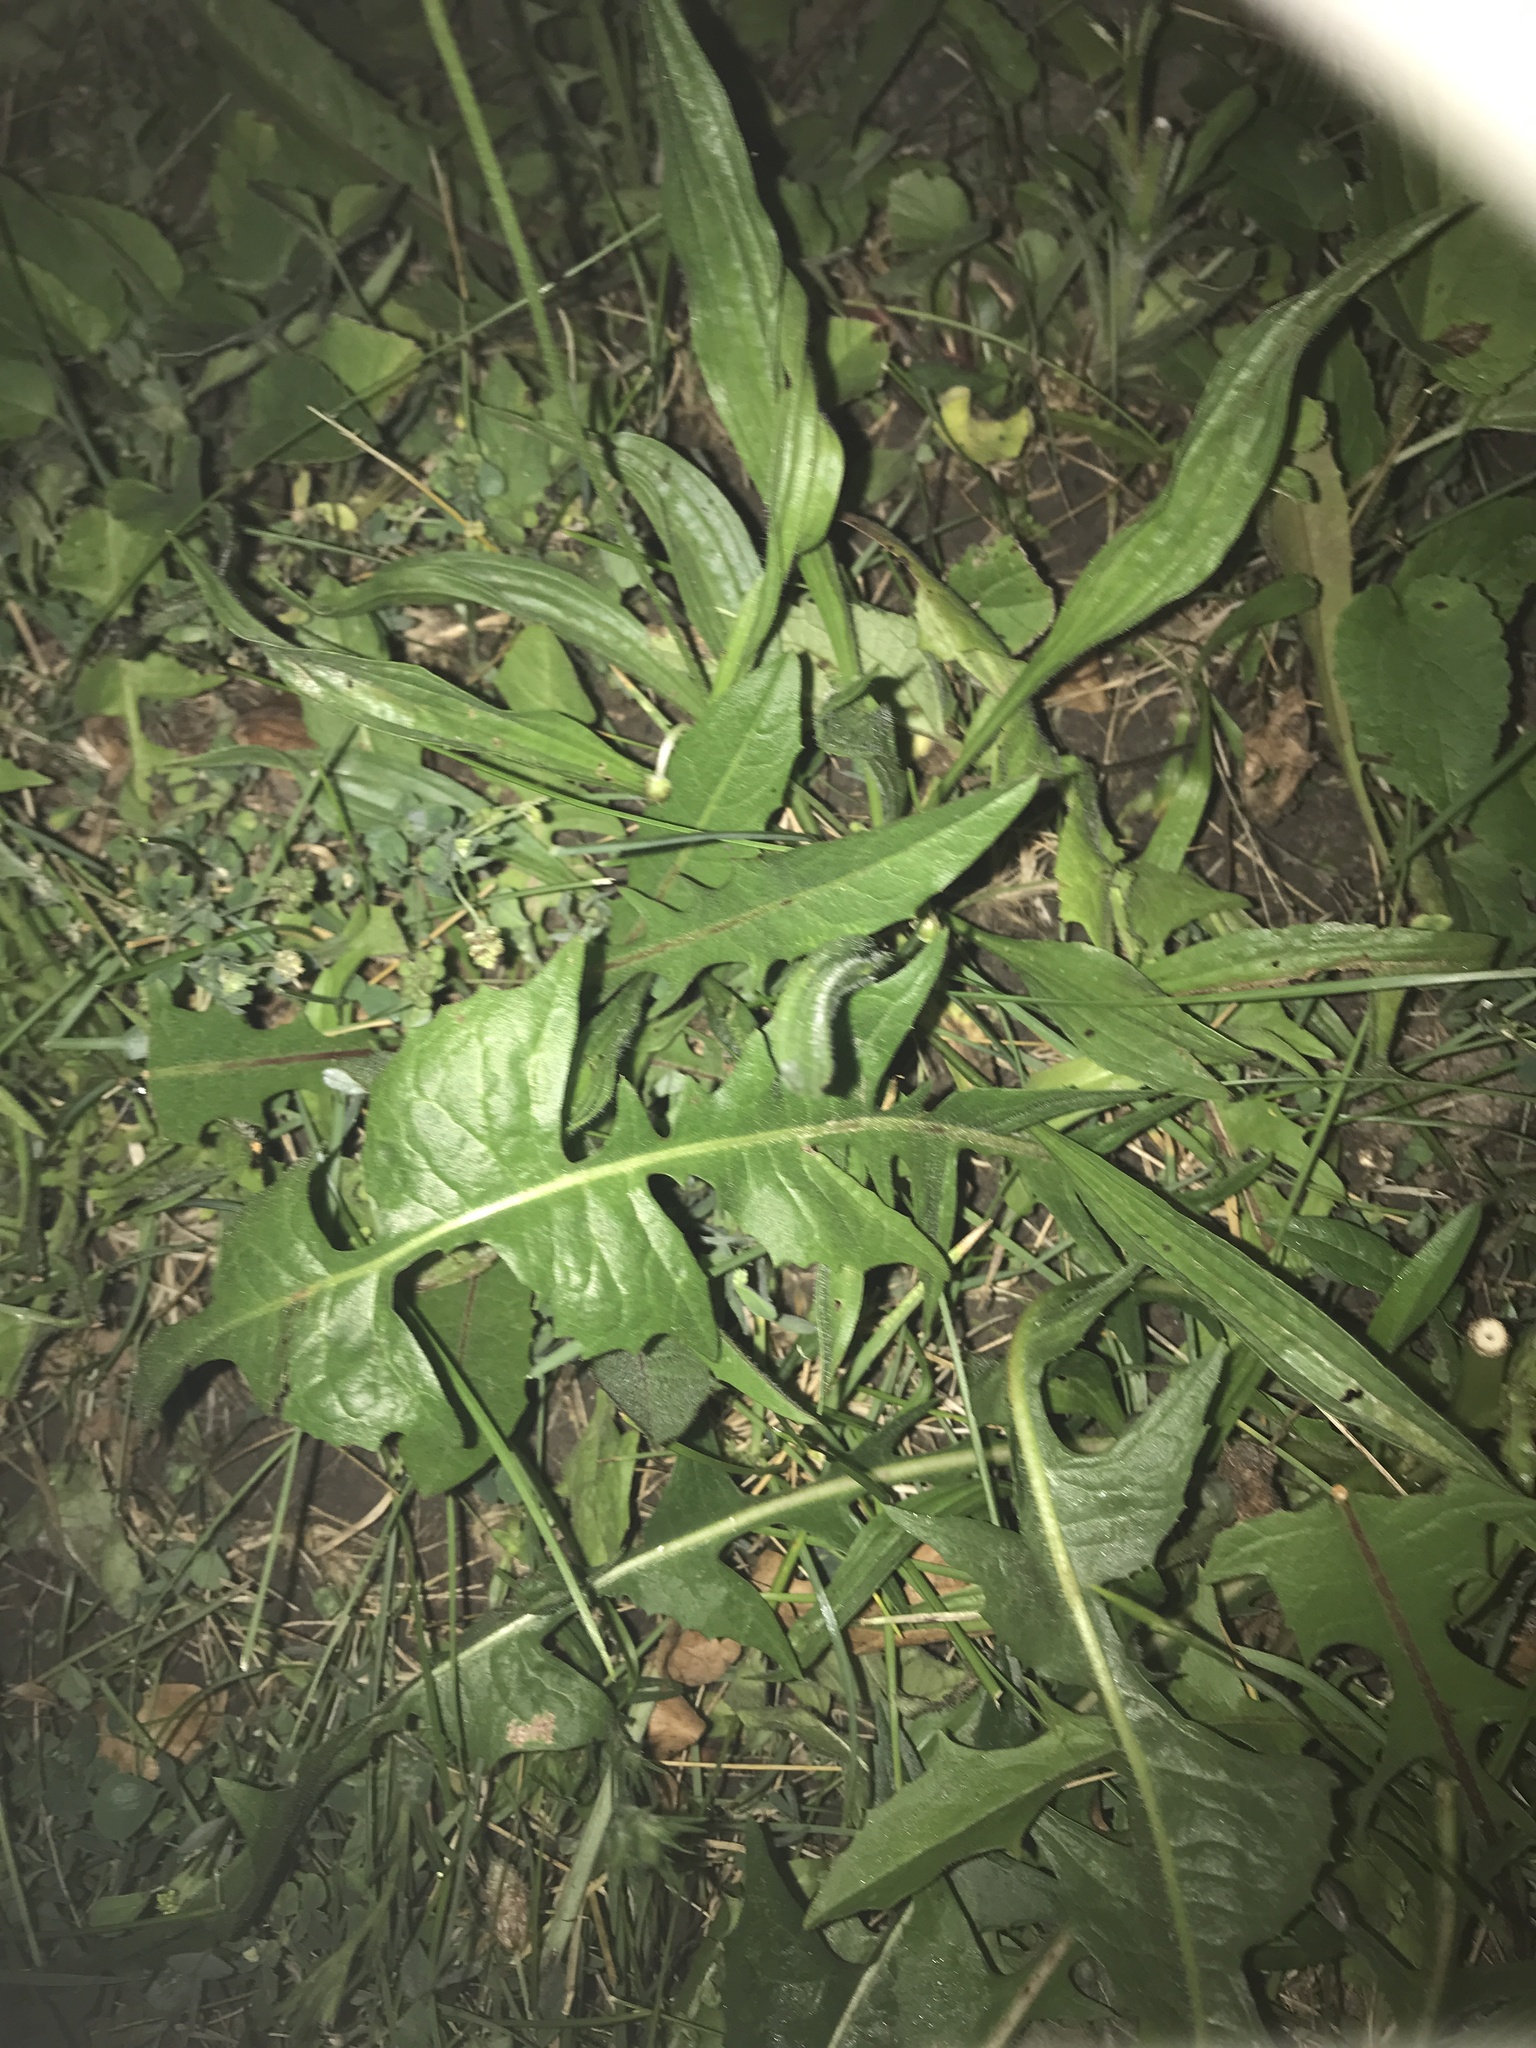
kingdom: Plantae
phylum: Tracheophyta
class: Magnoliopsida
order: Asterales
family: Asteraceae
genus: Taraxacum
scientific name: Taraxacum officinale
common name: Common dandelion
